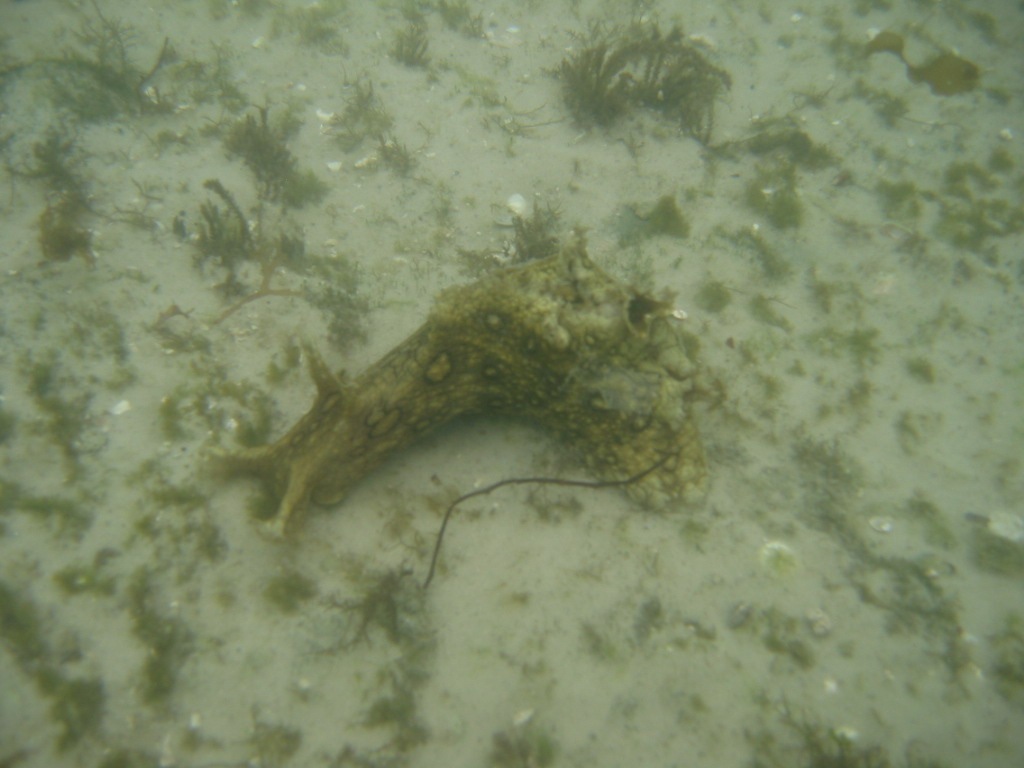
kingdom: Animalia
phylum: Mollusca
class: Gastropoda
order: Aplysiida
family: Aplysiidae
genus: Aplysia
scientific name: Aplysia dactylomela
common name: Large-spotted sea hare
